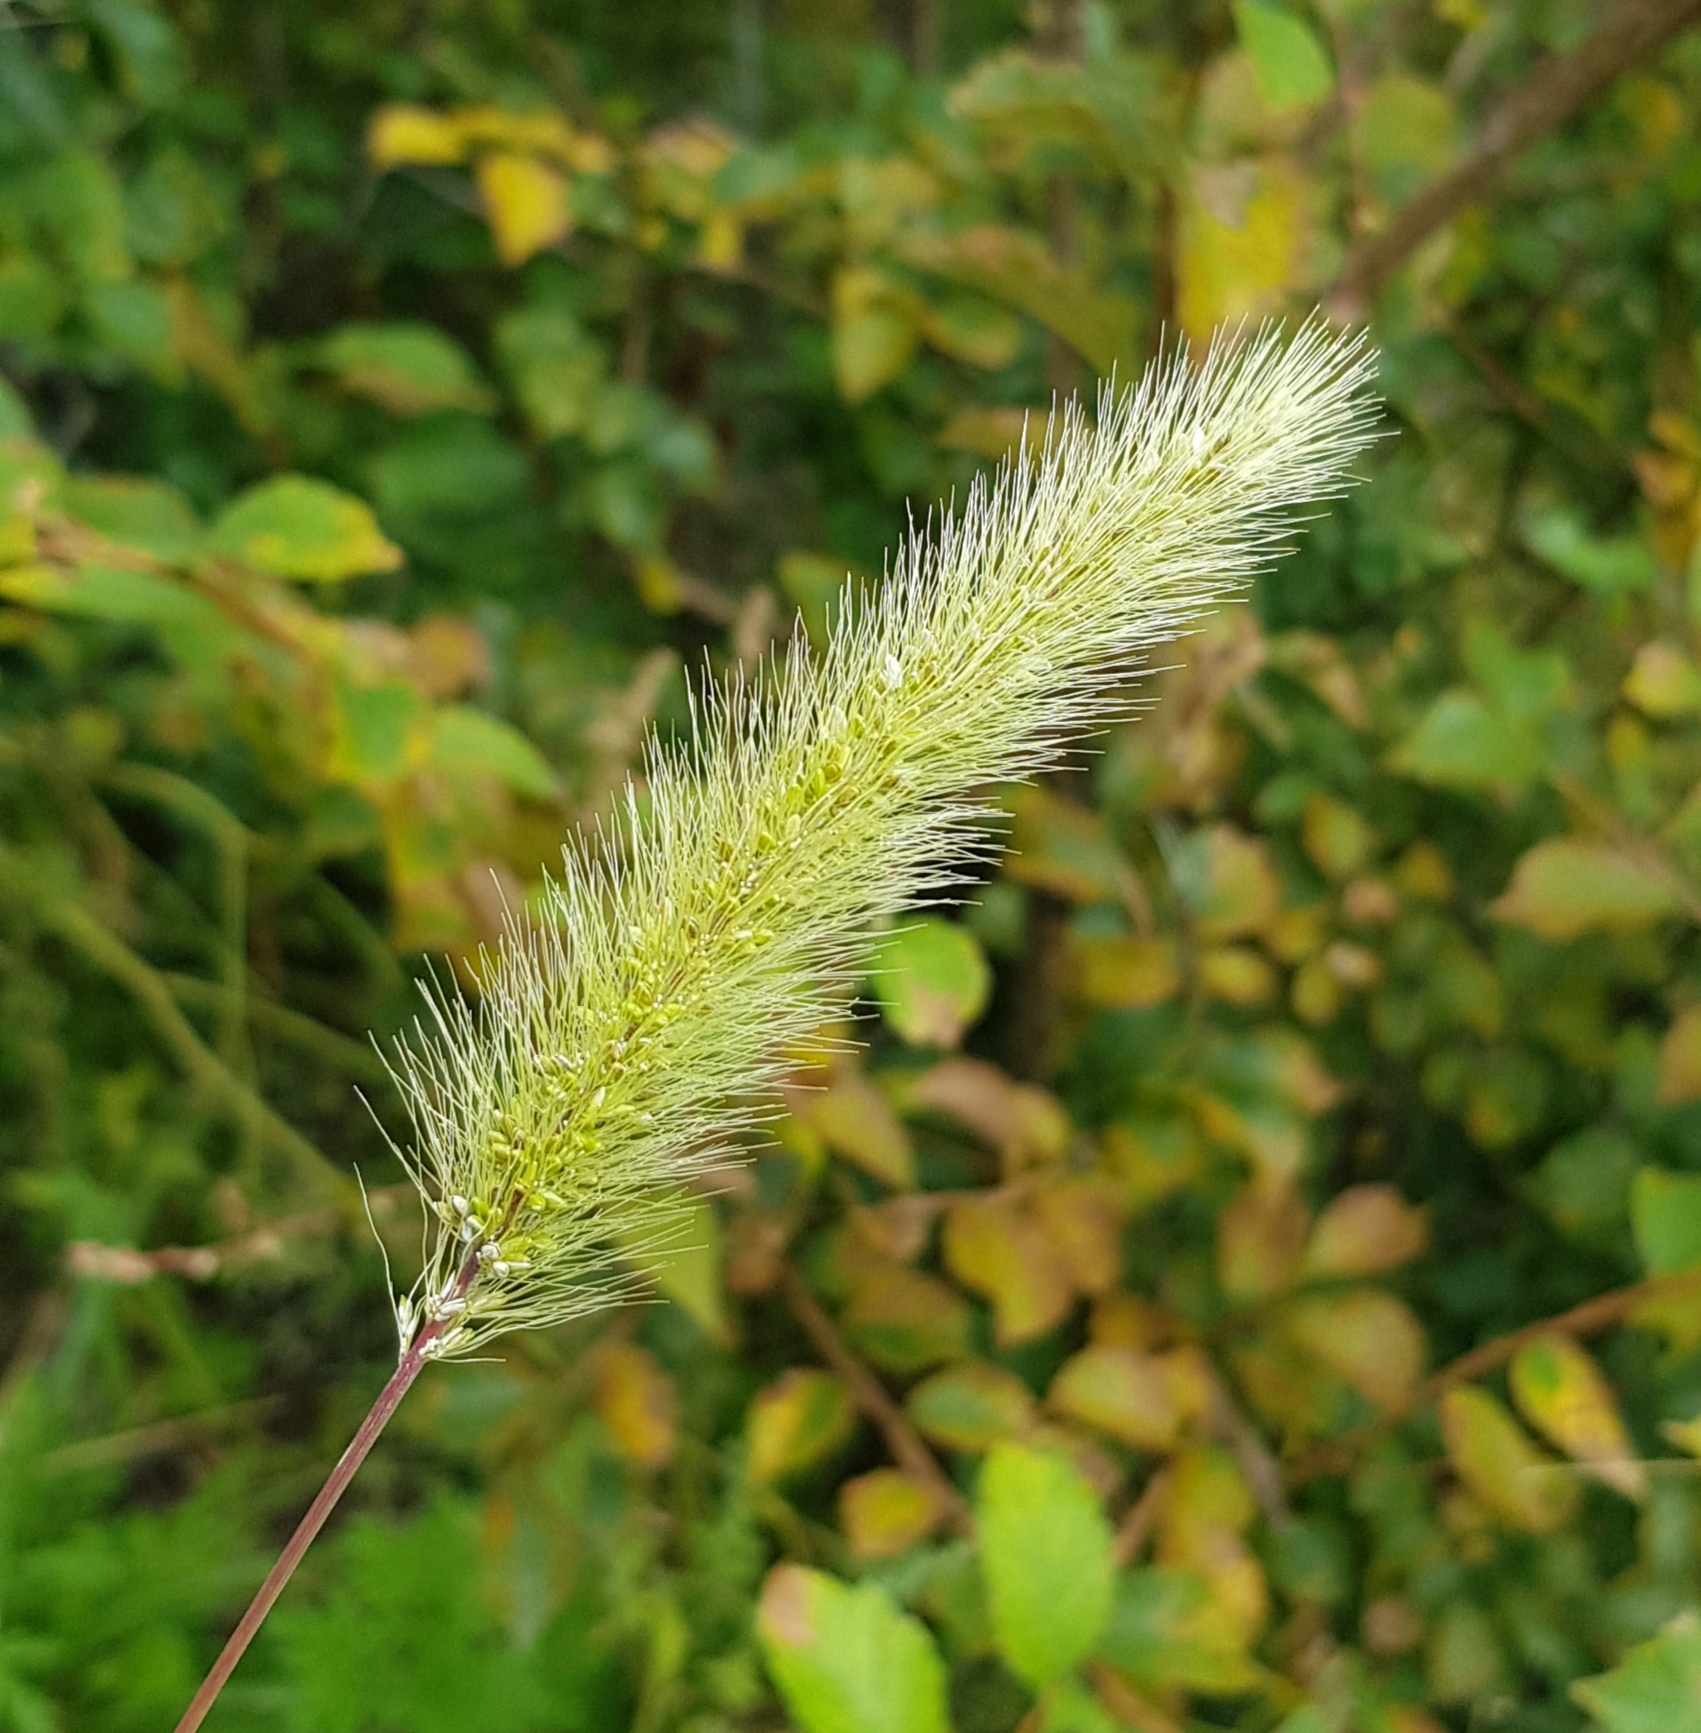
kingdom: Plantae
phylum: Tracheophyta
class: Liliopsida
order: Poales
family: Poaceae
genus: Setaria
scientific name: Setaria viridis
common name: Green bristlegrass
